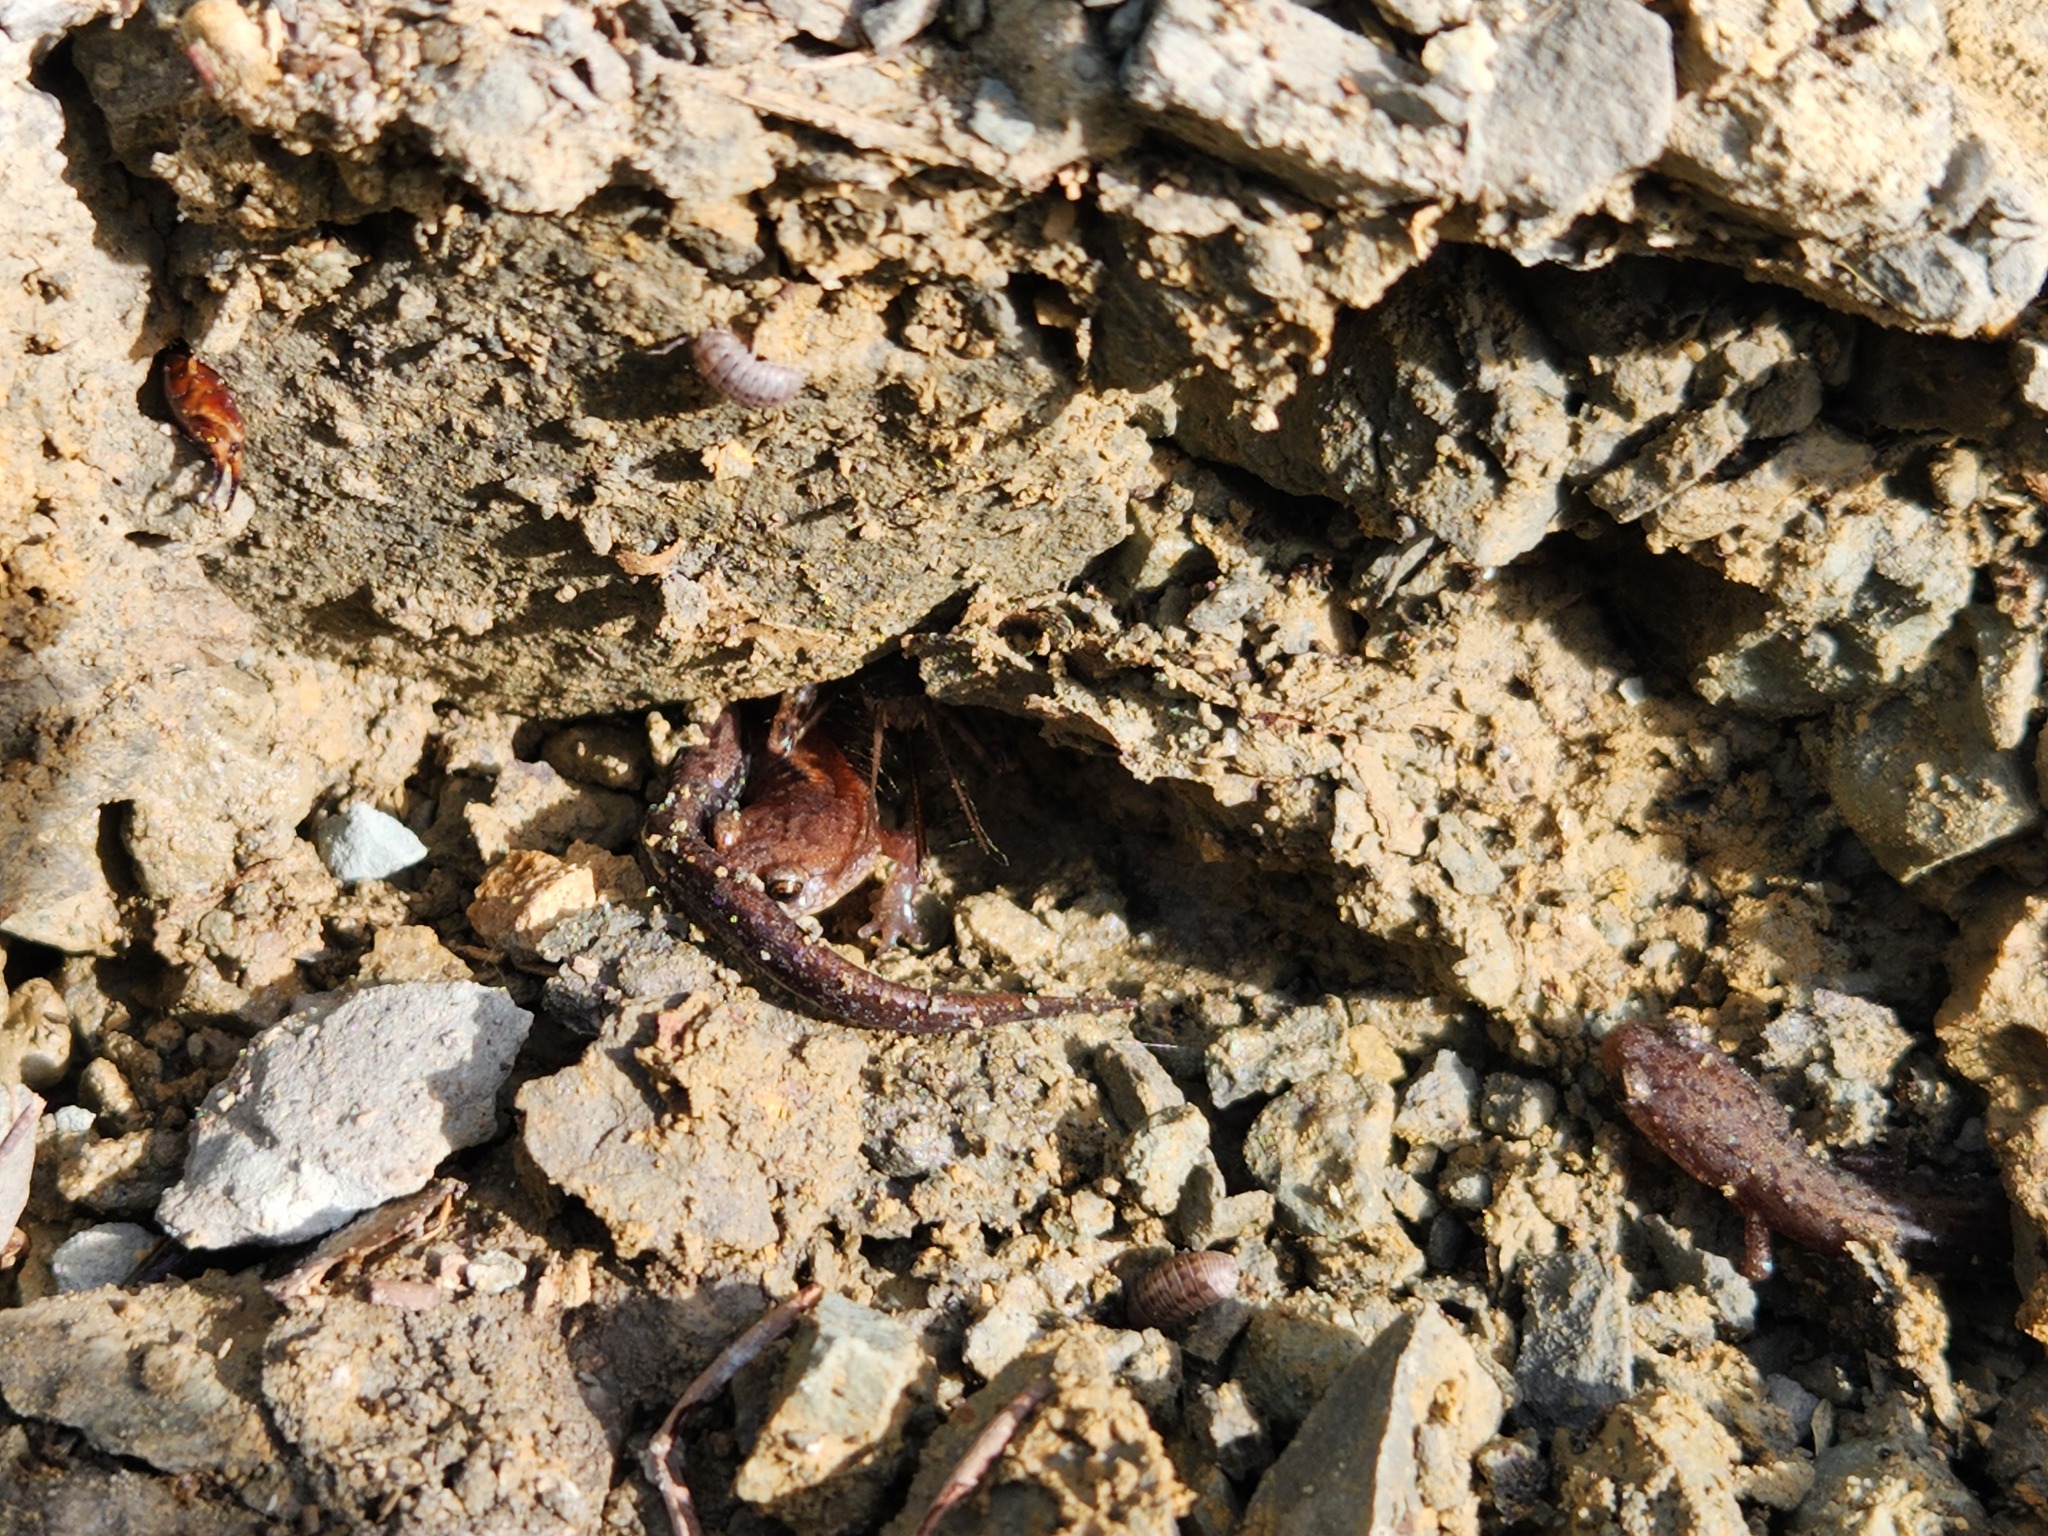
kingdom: Animalia
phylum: Chordata
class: Amphibia
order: Caudata
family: Plethodontidae
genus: Plethodon
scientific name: Plethodon dorsalis
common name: Northern zigzag salamander
